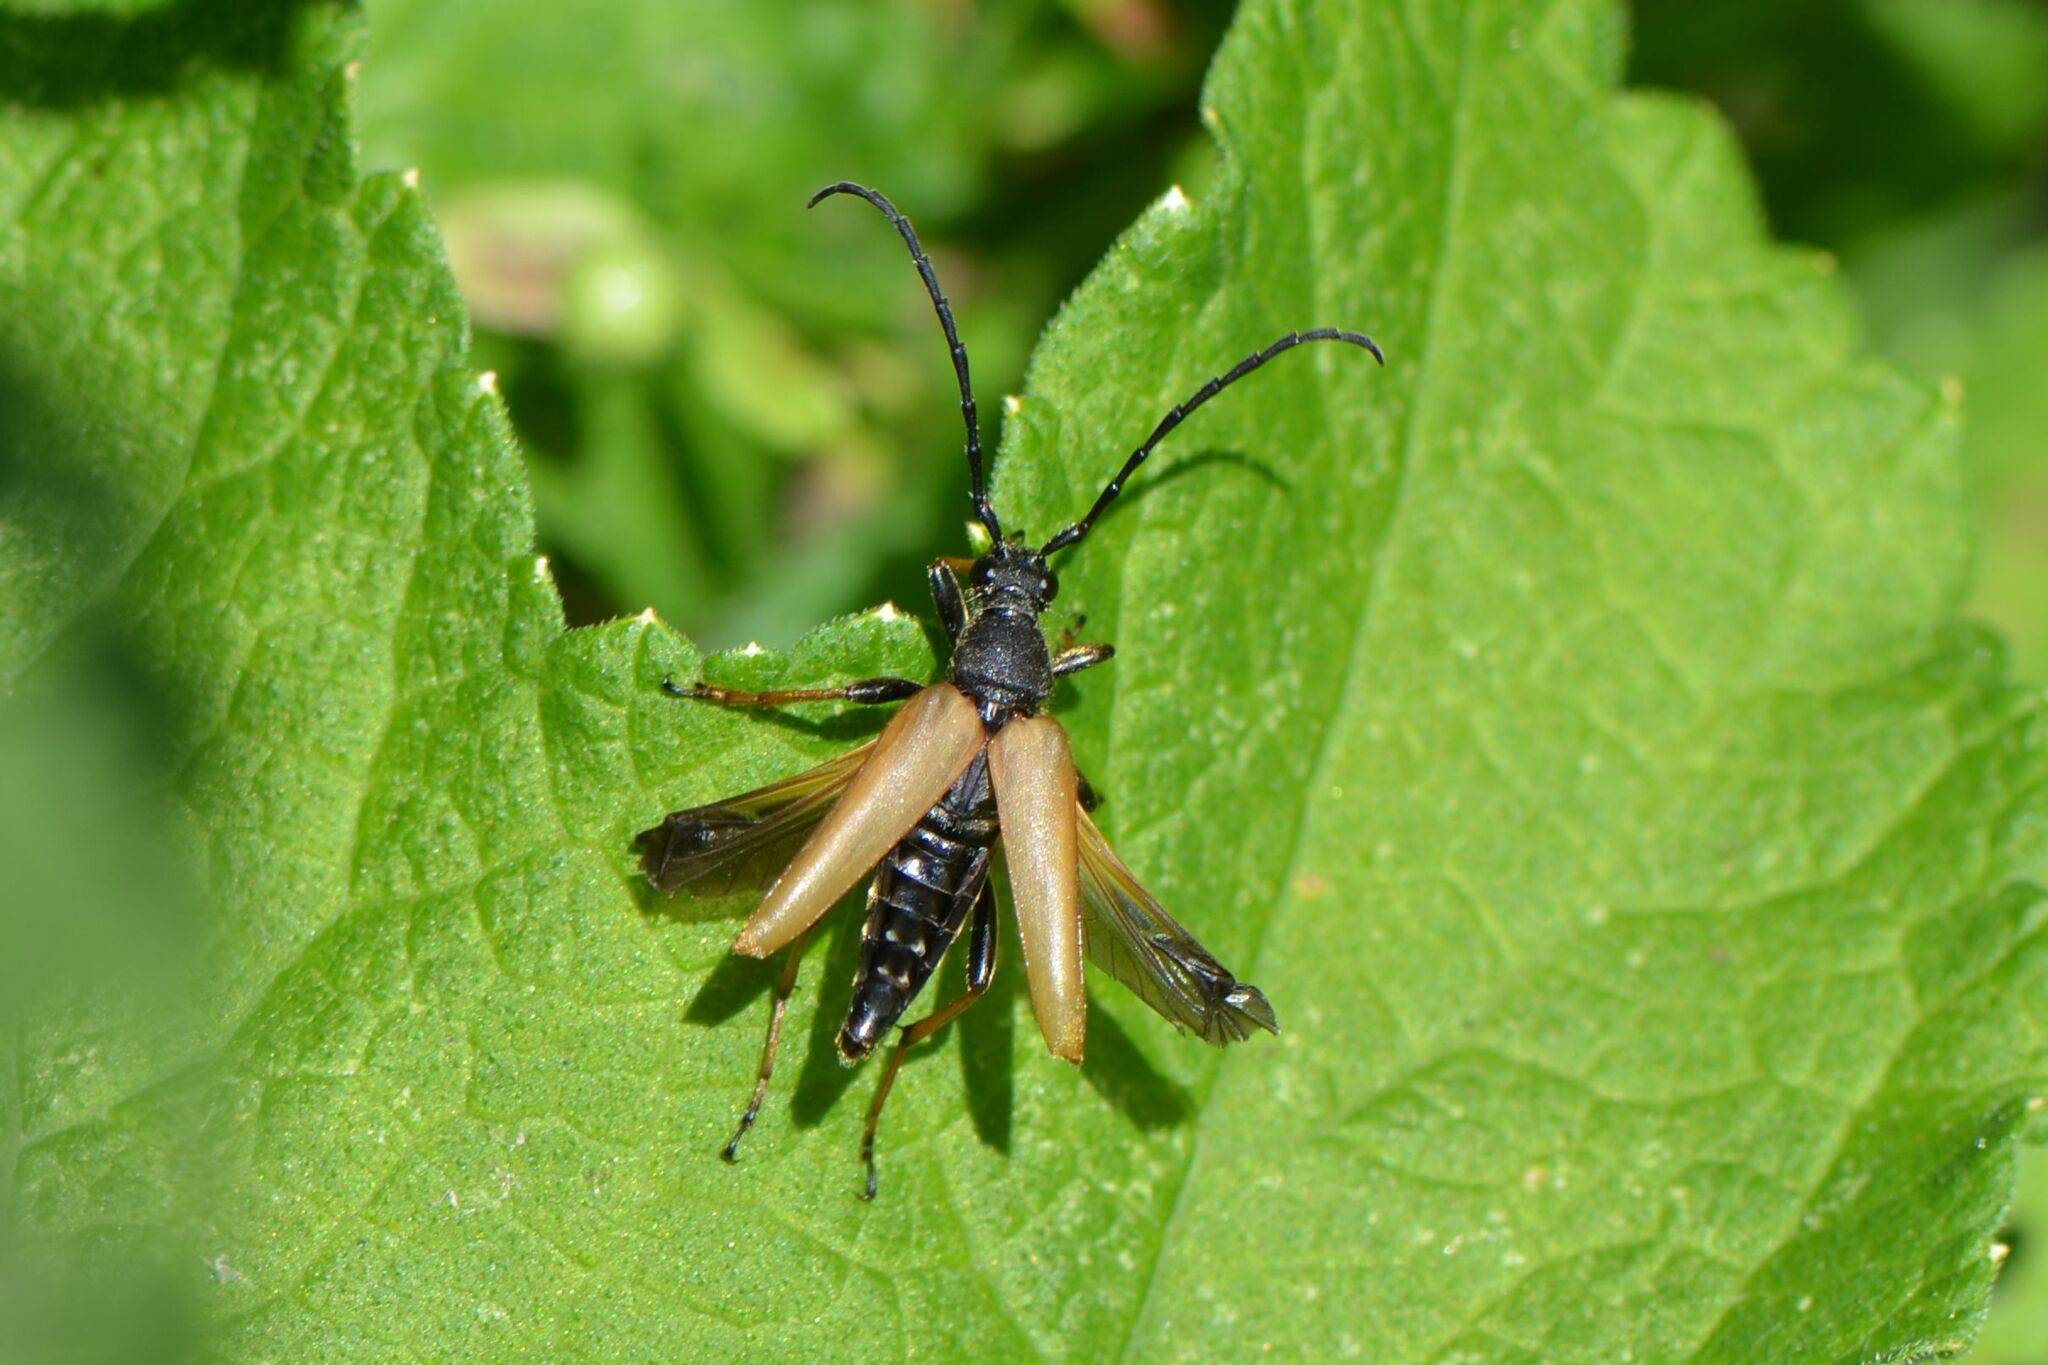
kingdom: Animalia
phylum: Arthropoda
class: Insecta
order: Coleoptera
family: Cerambycidae
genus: Stictoleptura
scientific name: Stictoleptura rubra
